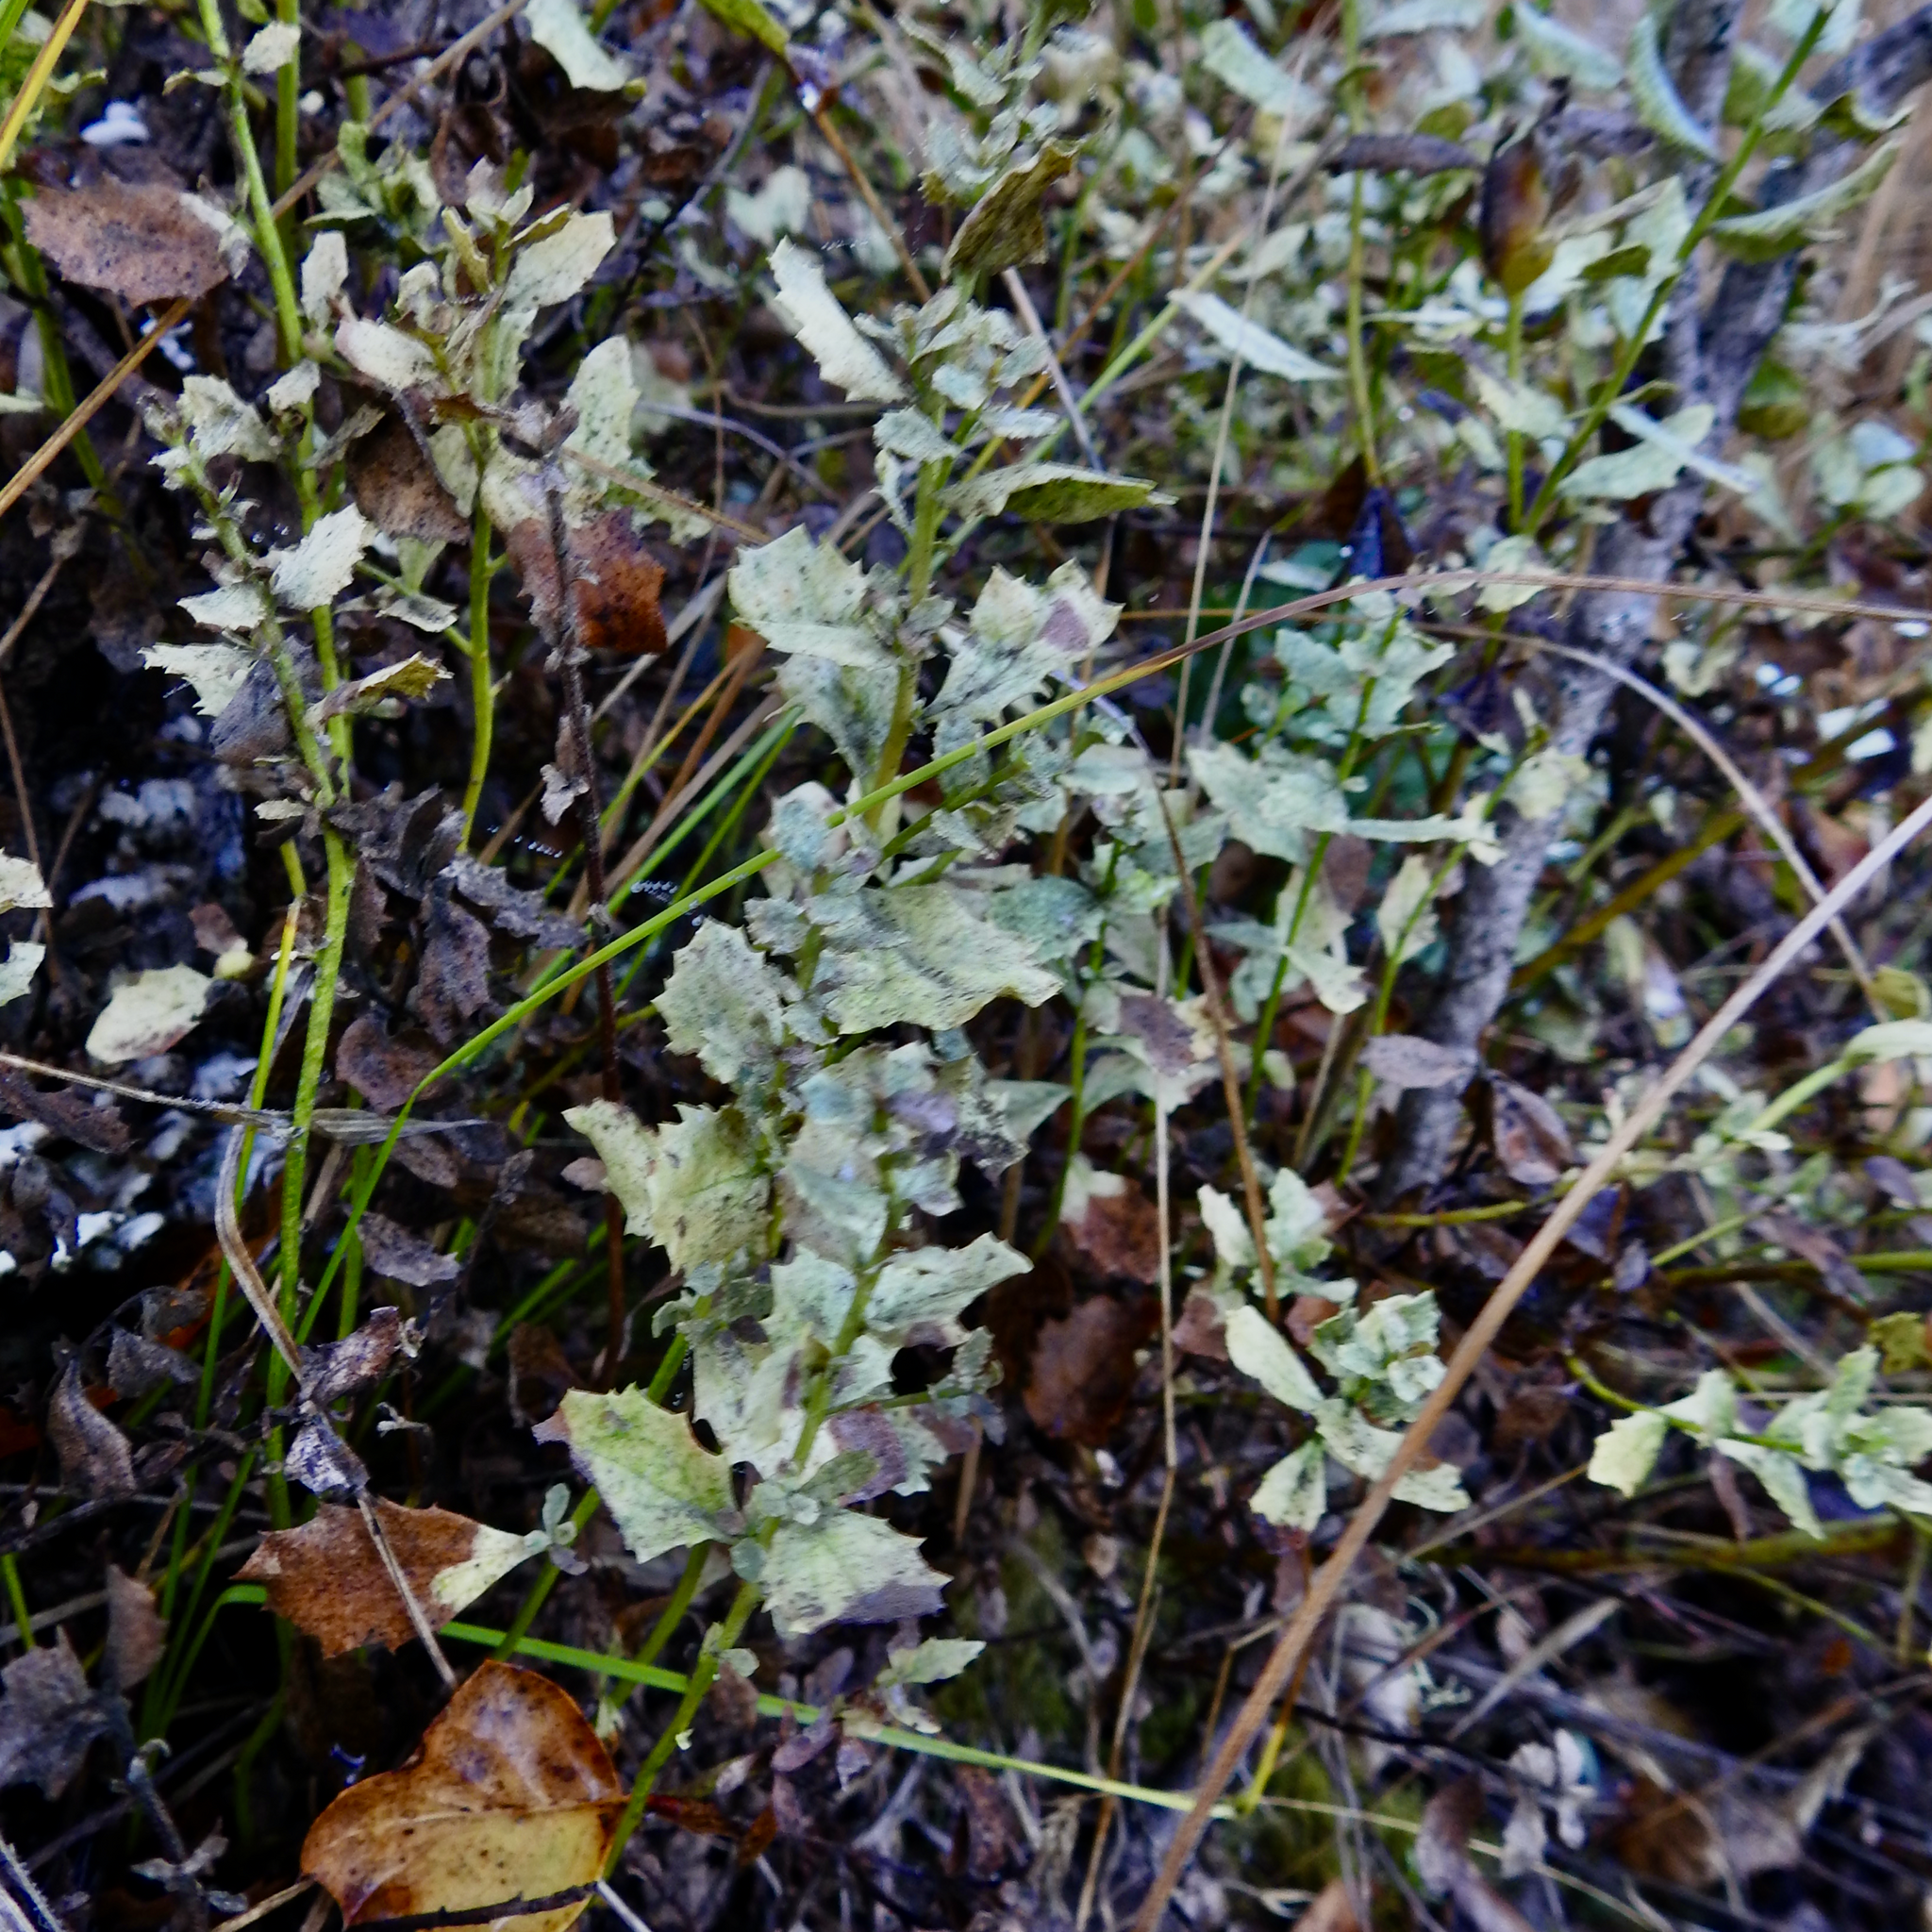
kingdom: Plantae
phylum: Tracheophyta
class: Magnoliopsida
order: Asterales
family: Asteraceae
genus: Baccharis
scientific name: Baccharis pilularis
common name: Coyotebrush
